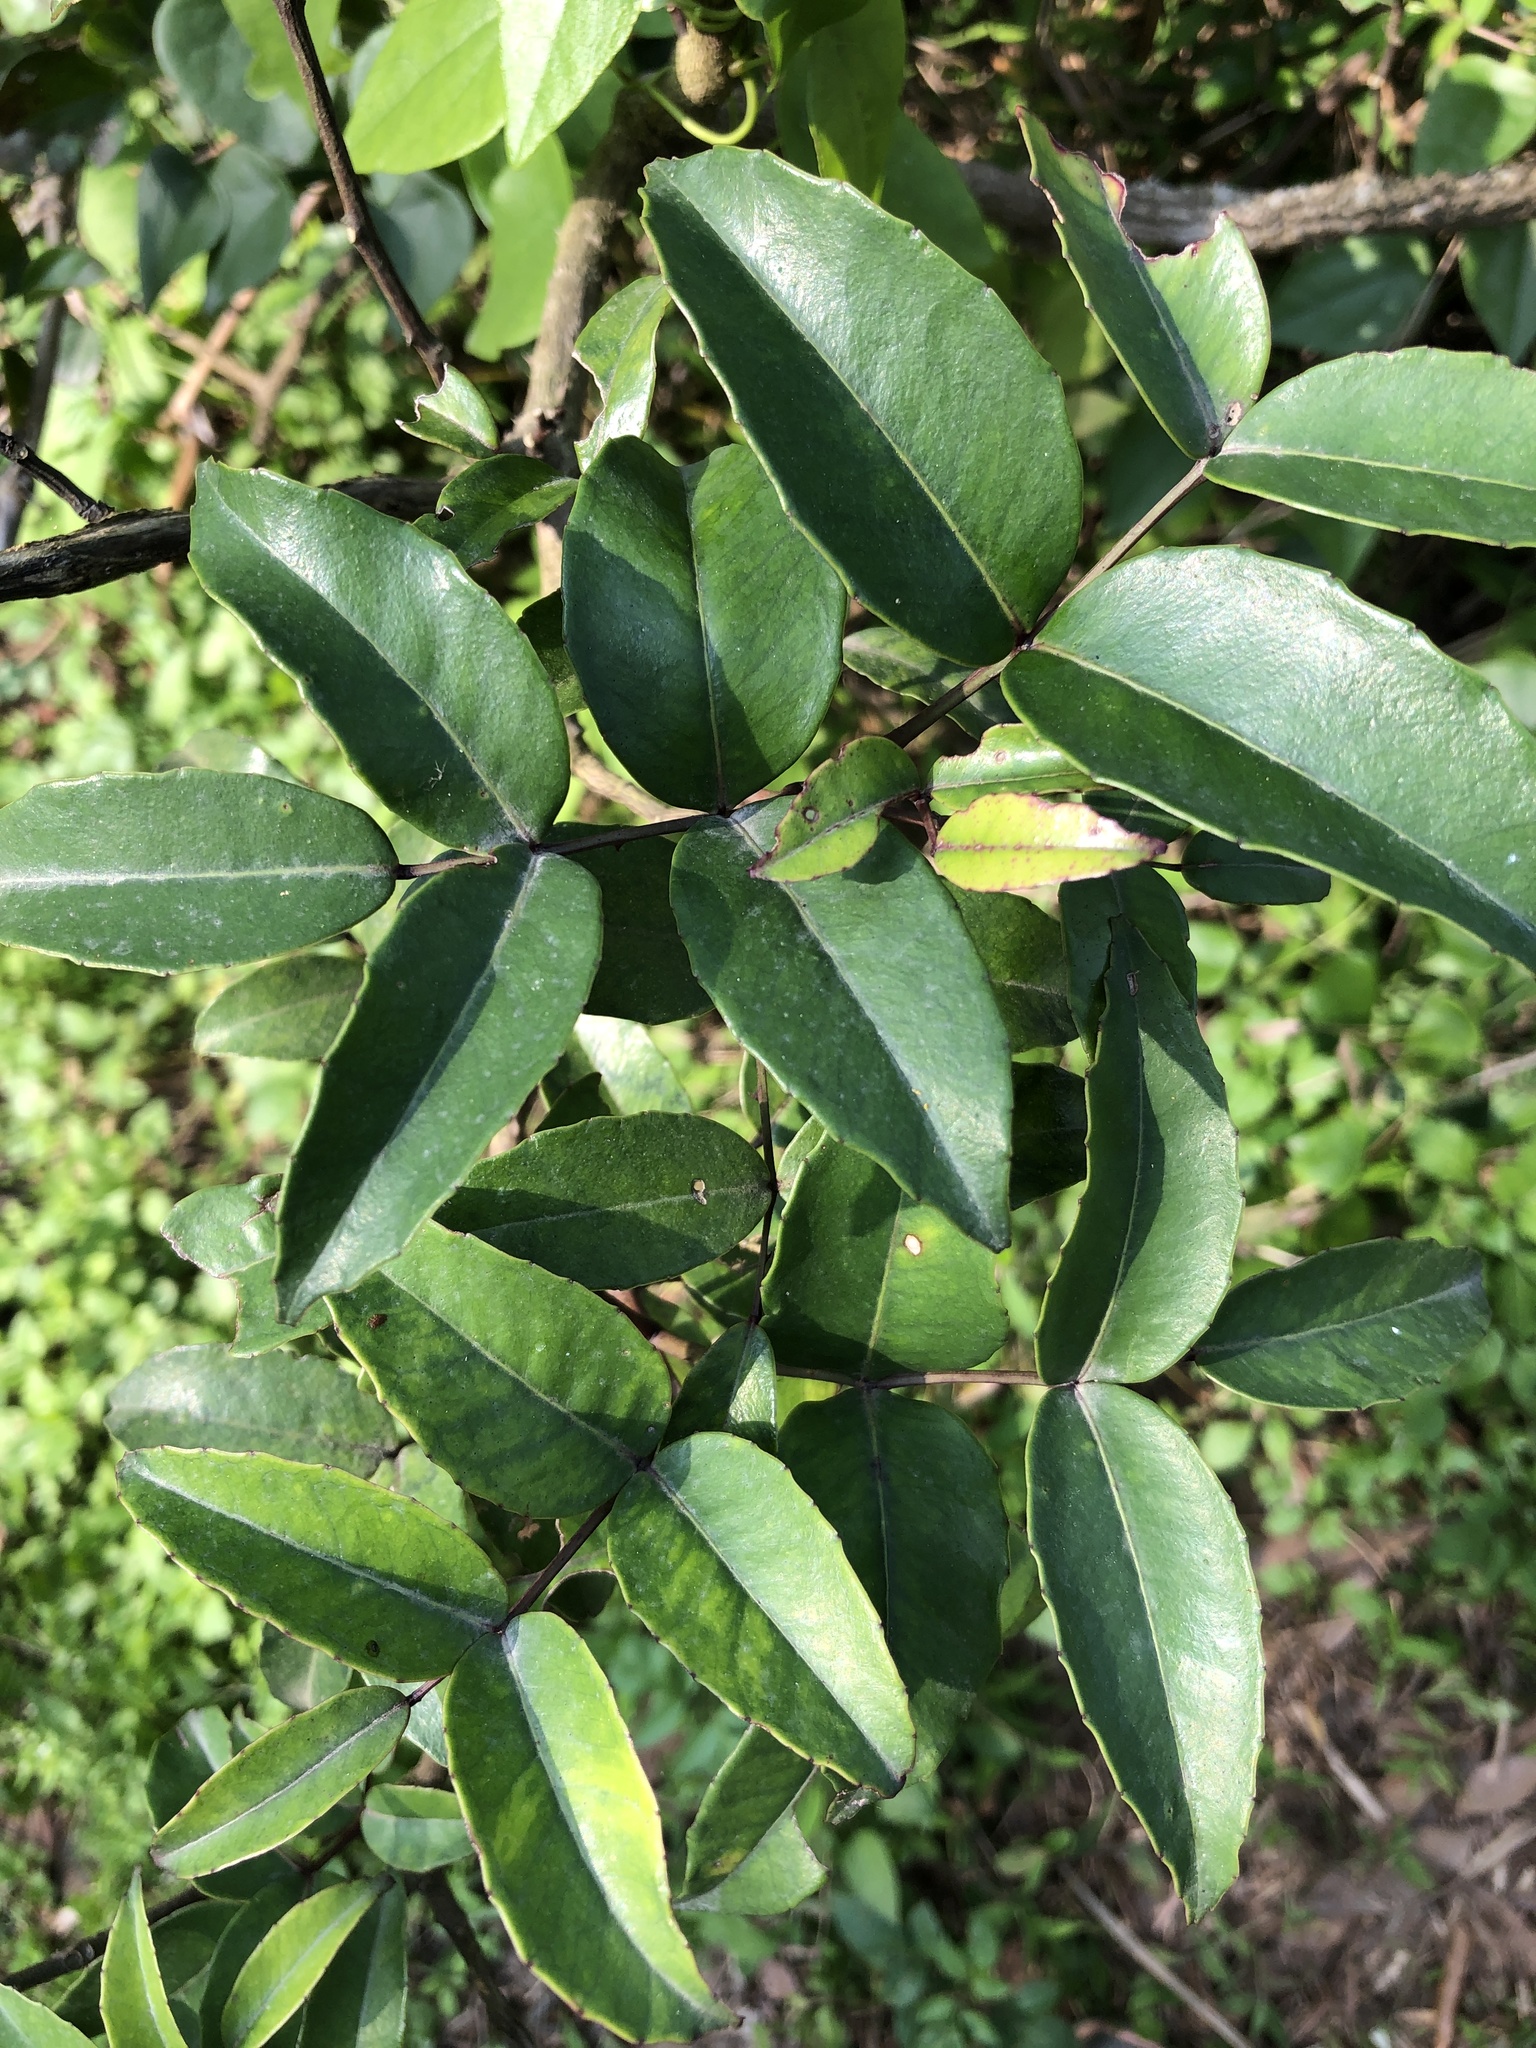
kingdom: Plantae
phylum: Tracheophyta
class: Magnoliopsida
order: Sapindales
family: Rutaceae
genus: Zanthoxylum
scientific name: Zanthoxylum nitidum
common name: Shiny-leaf prickly-ash
